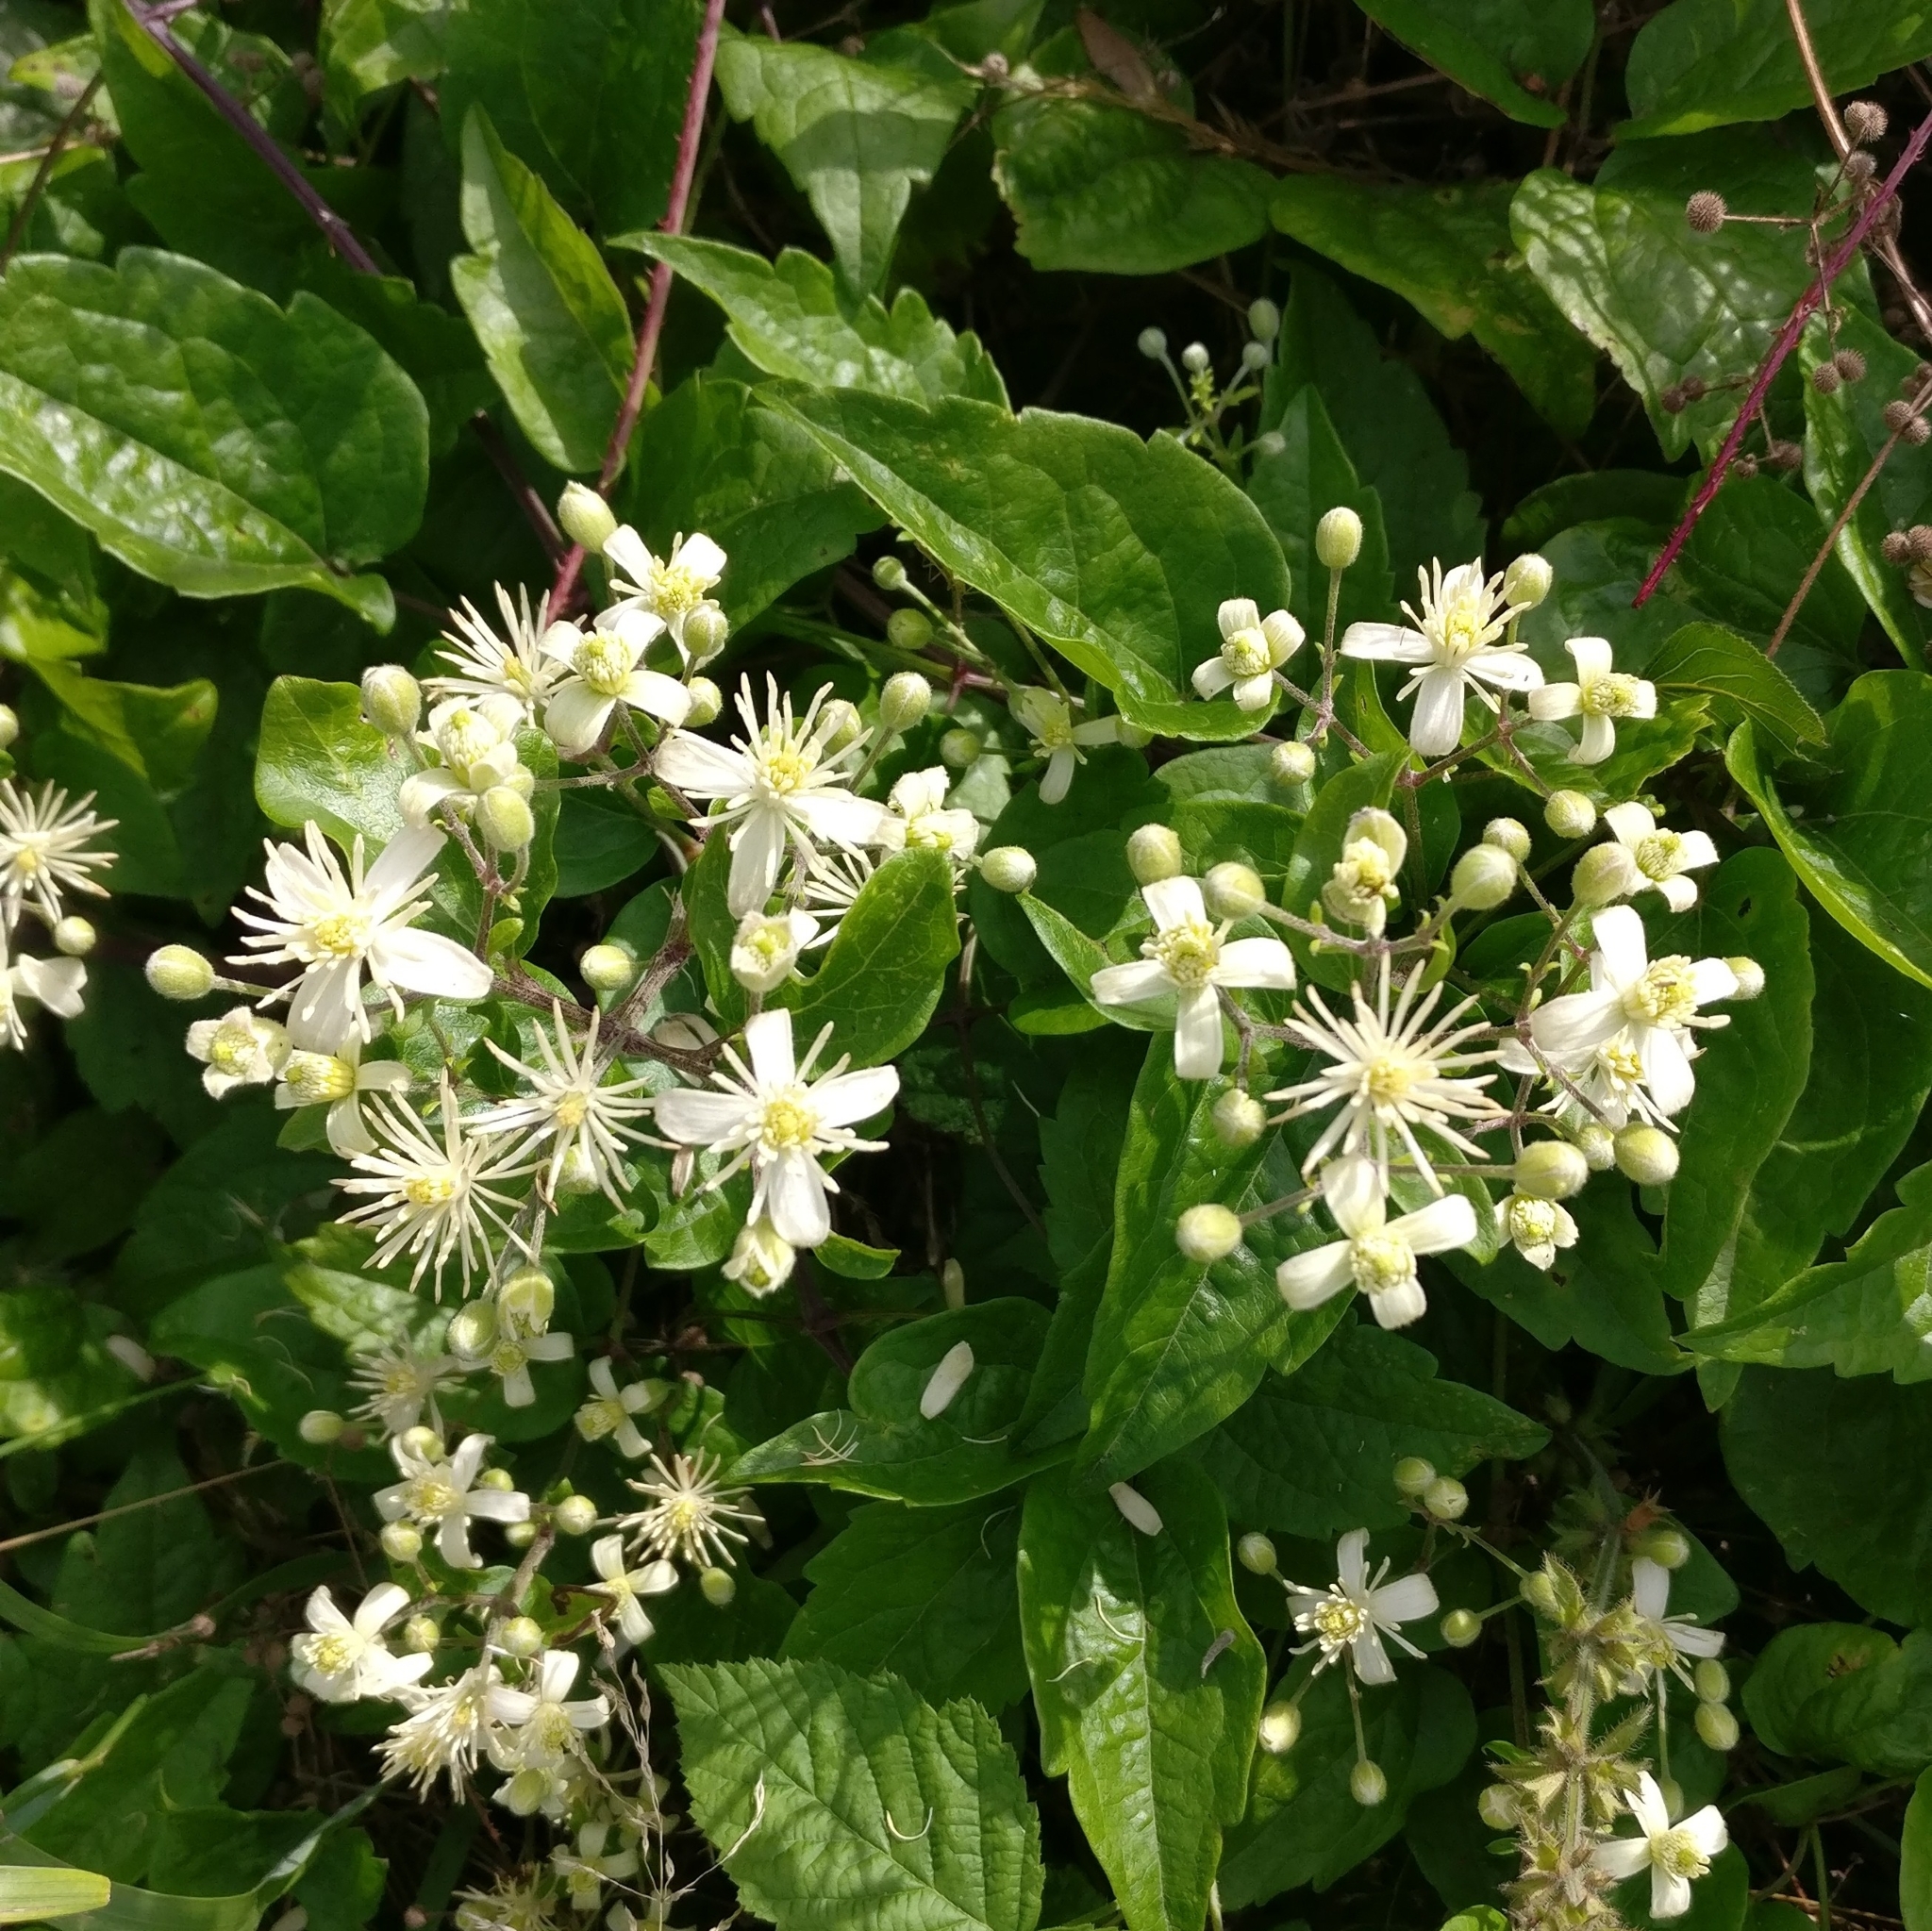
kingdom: Plantae
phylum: Tracheophyta
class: Magnoliopsida
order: Ranunculales
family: Ranunculaceae
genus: Clematis
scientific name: Clematis vitalba
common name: Evergreen clematis
